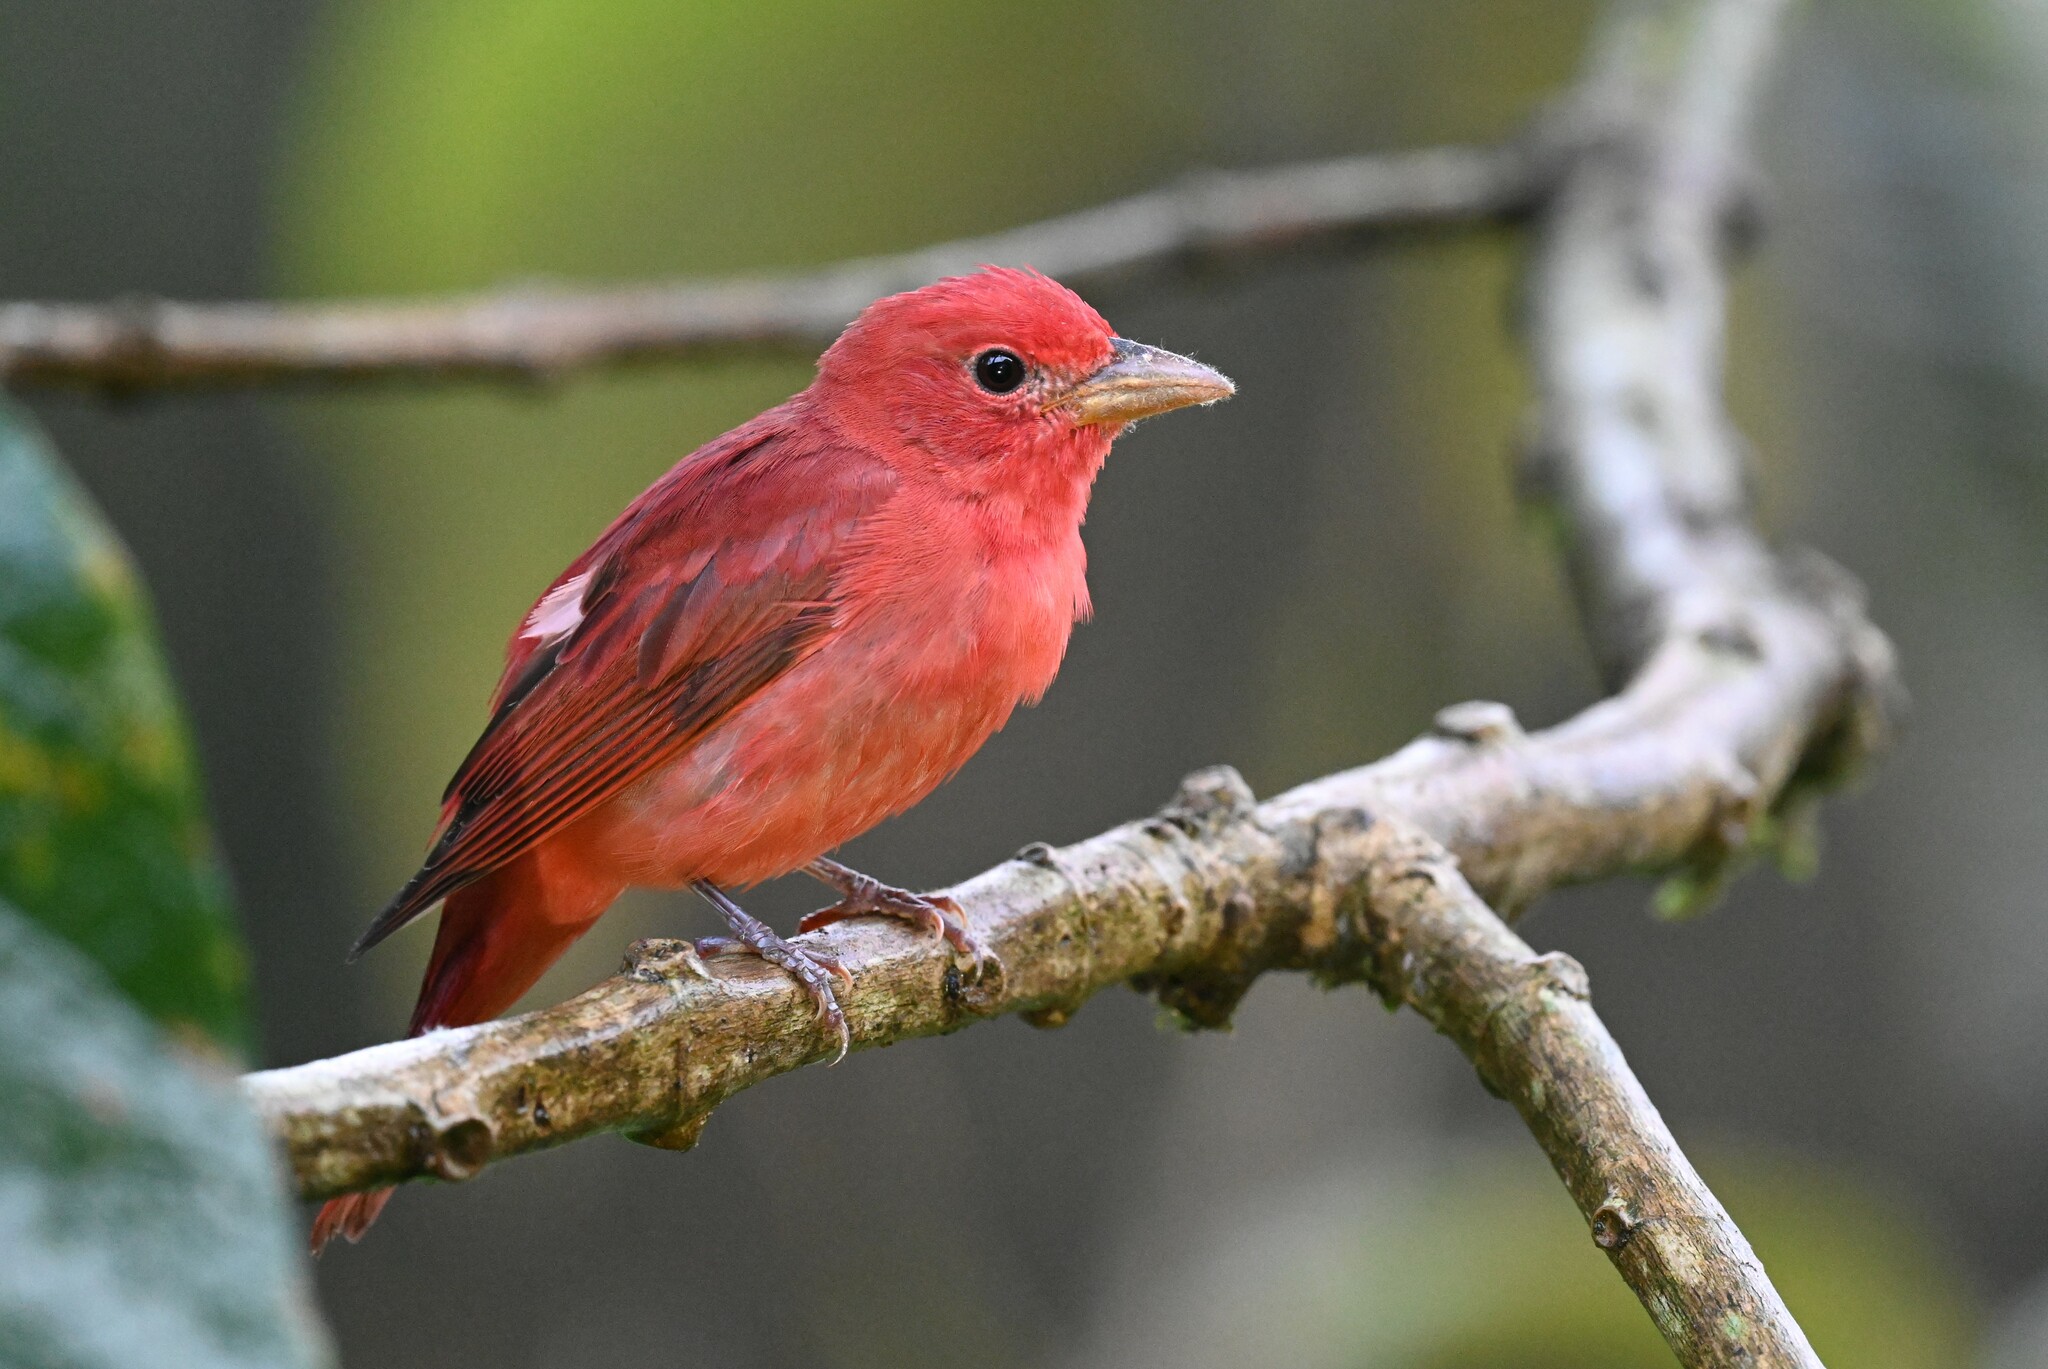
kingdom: Animalia
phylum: Chordata
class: Aves
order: Passeriformes
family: Cardinalidae
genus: Piranga
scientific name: Piranga rubra
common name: Summer tanager
